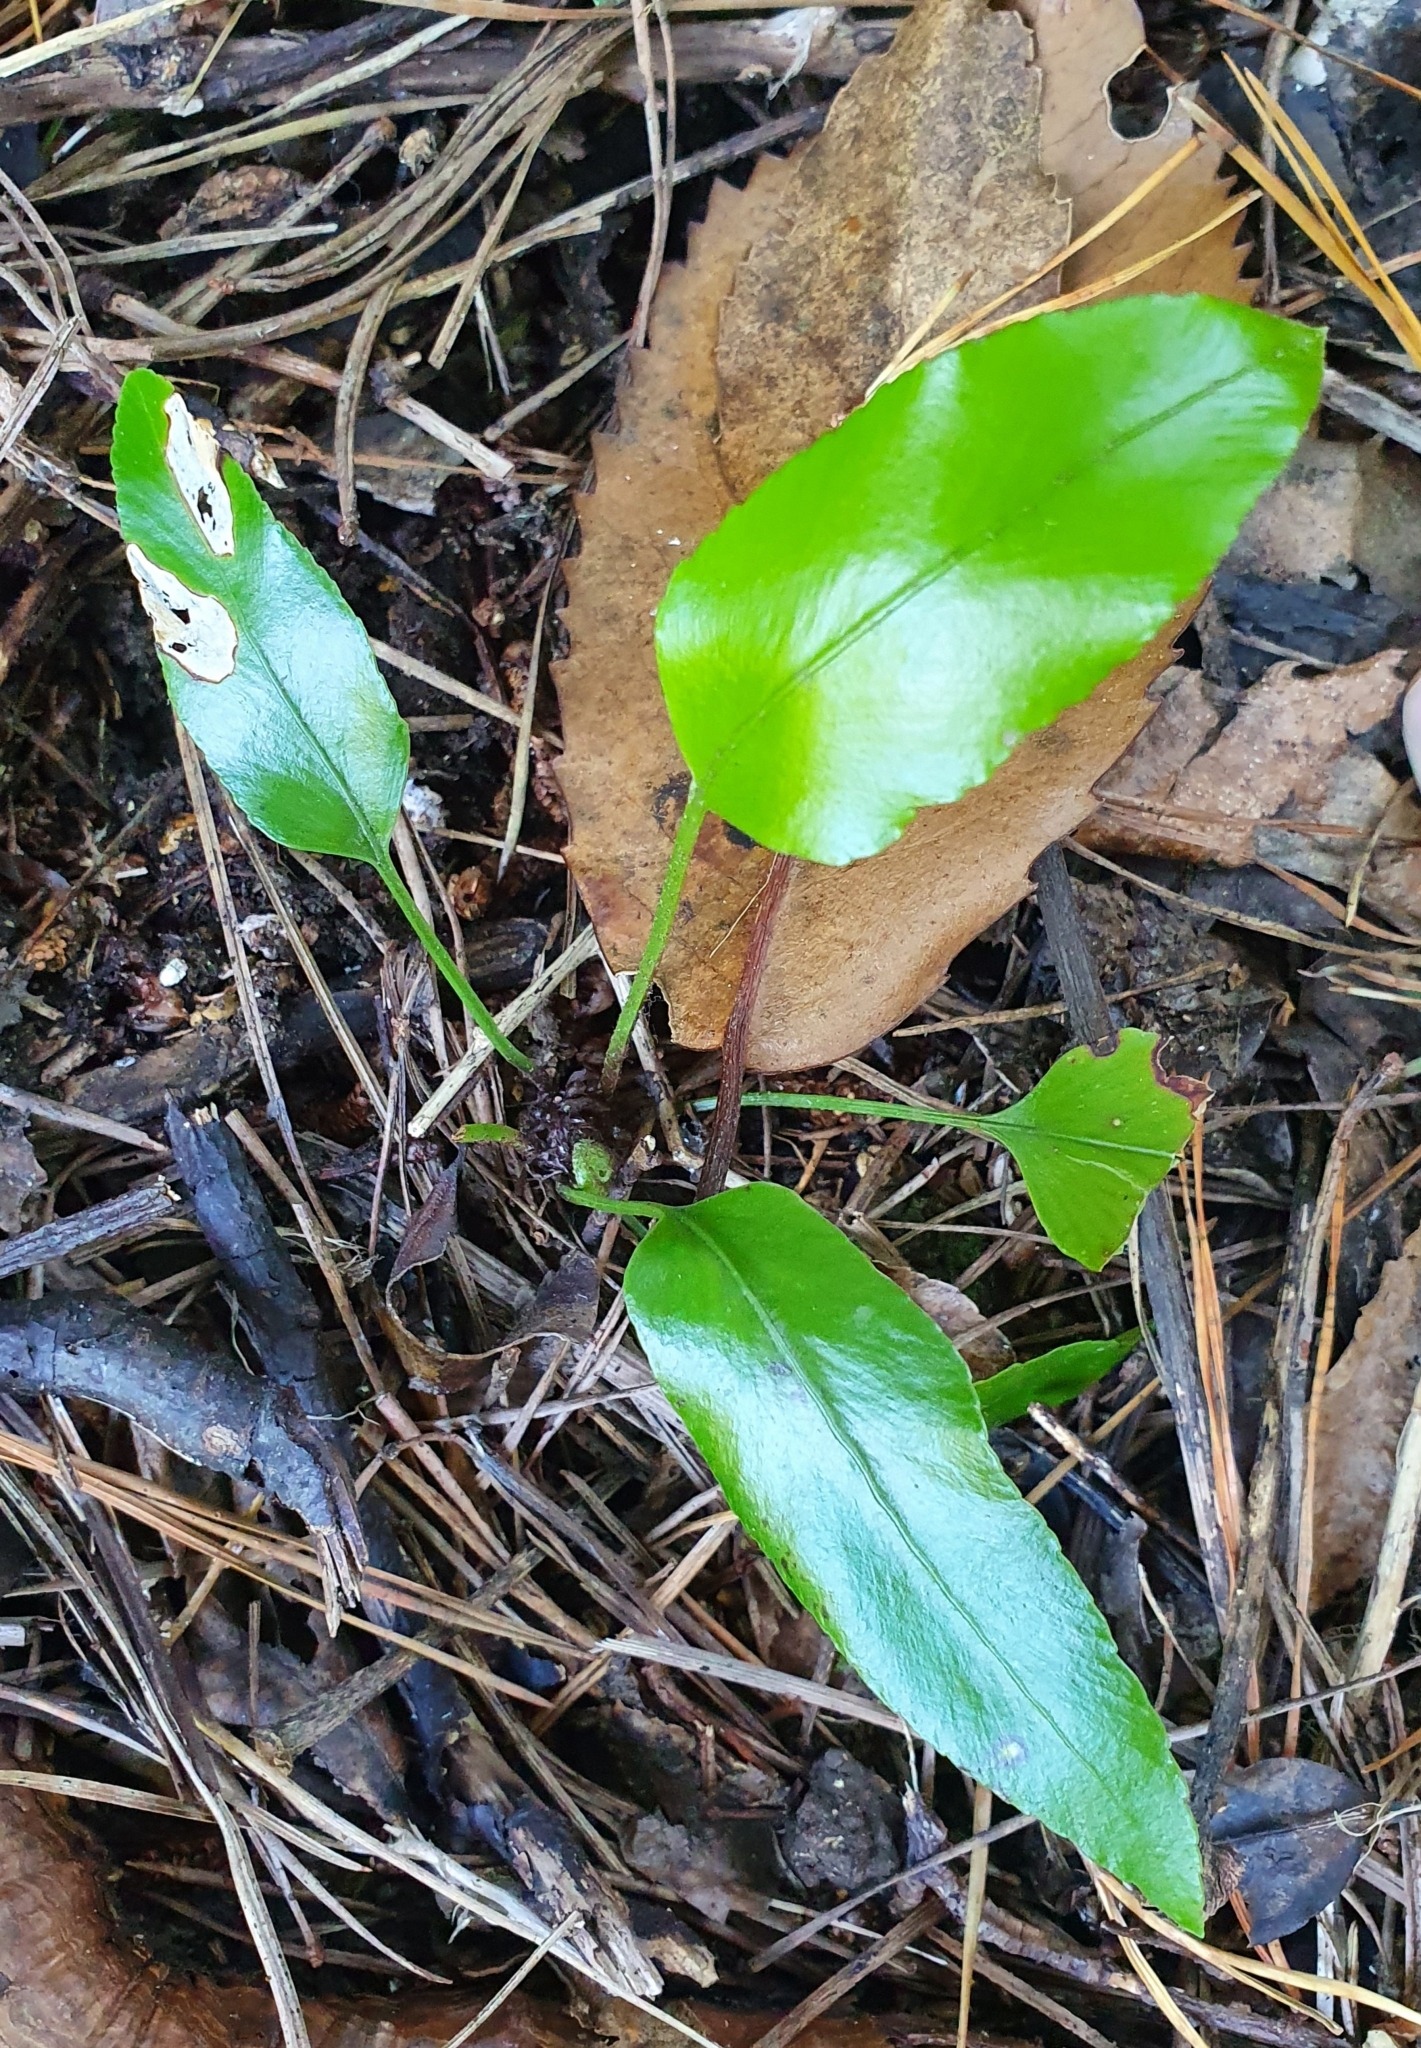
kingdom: Plantae
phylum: Tracheophyta
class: Polypodiopsida
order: Polypodiales
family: Aspleniaceae
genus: Asplenium
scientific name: Asplenium oblongifolium
